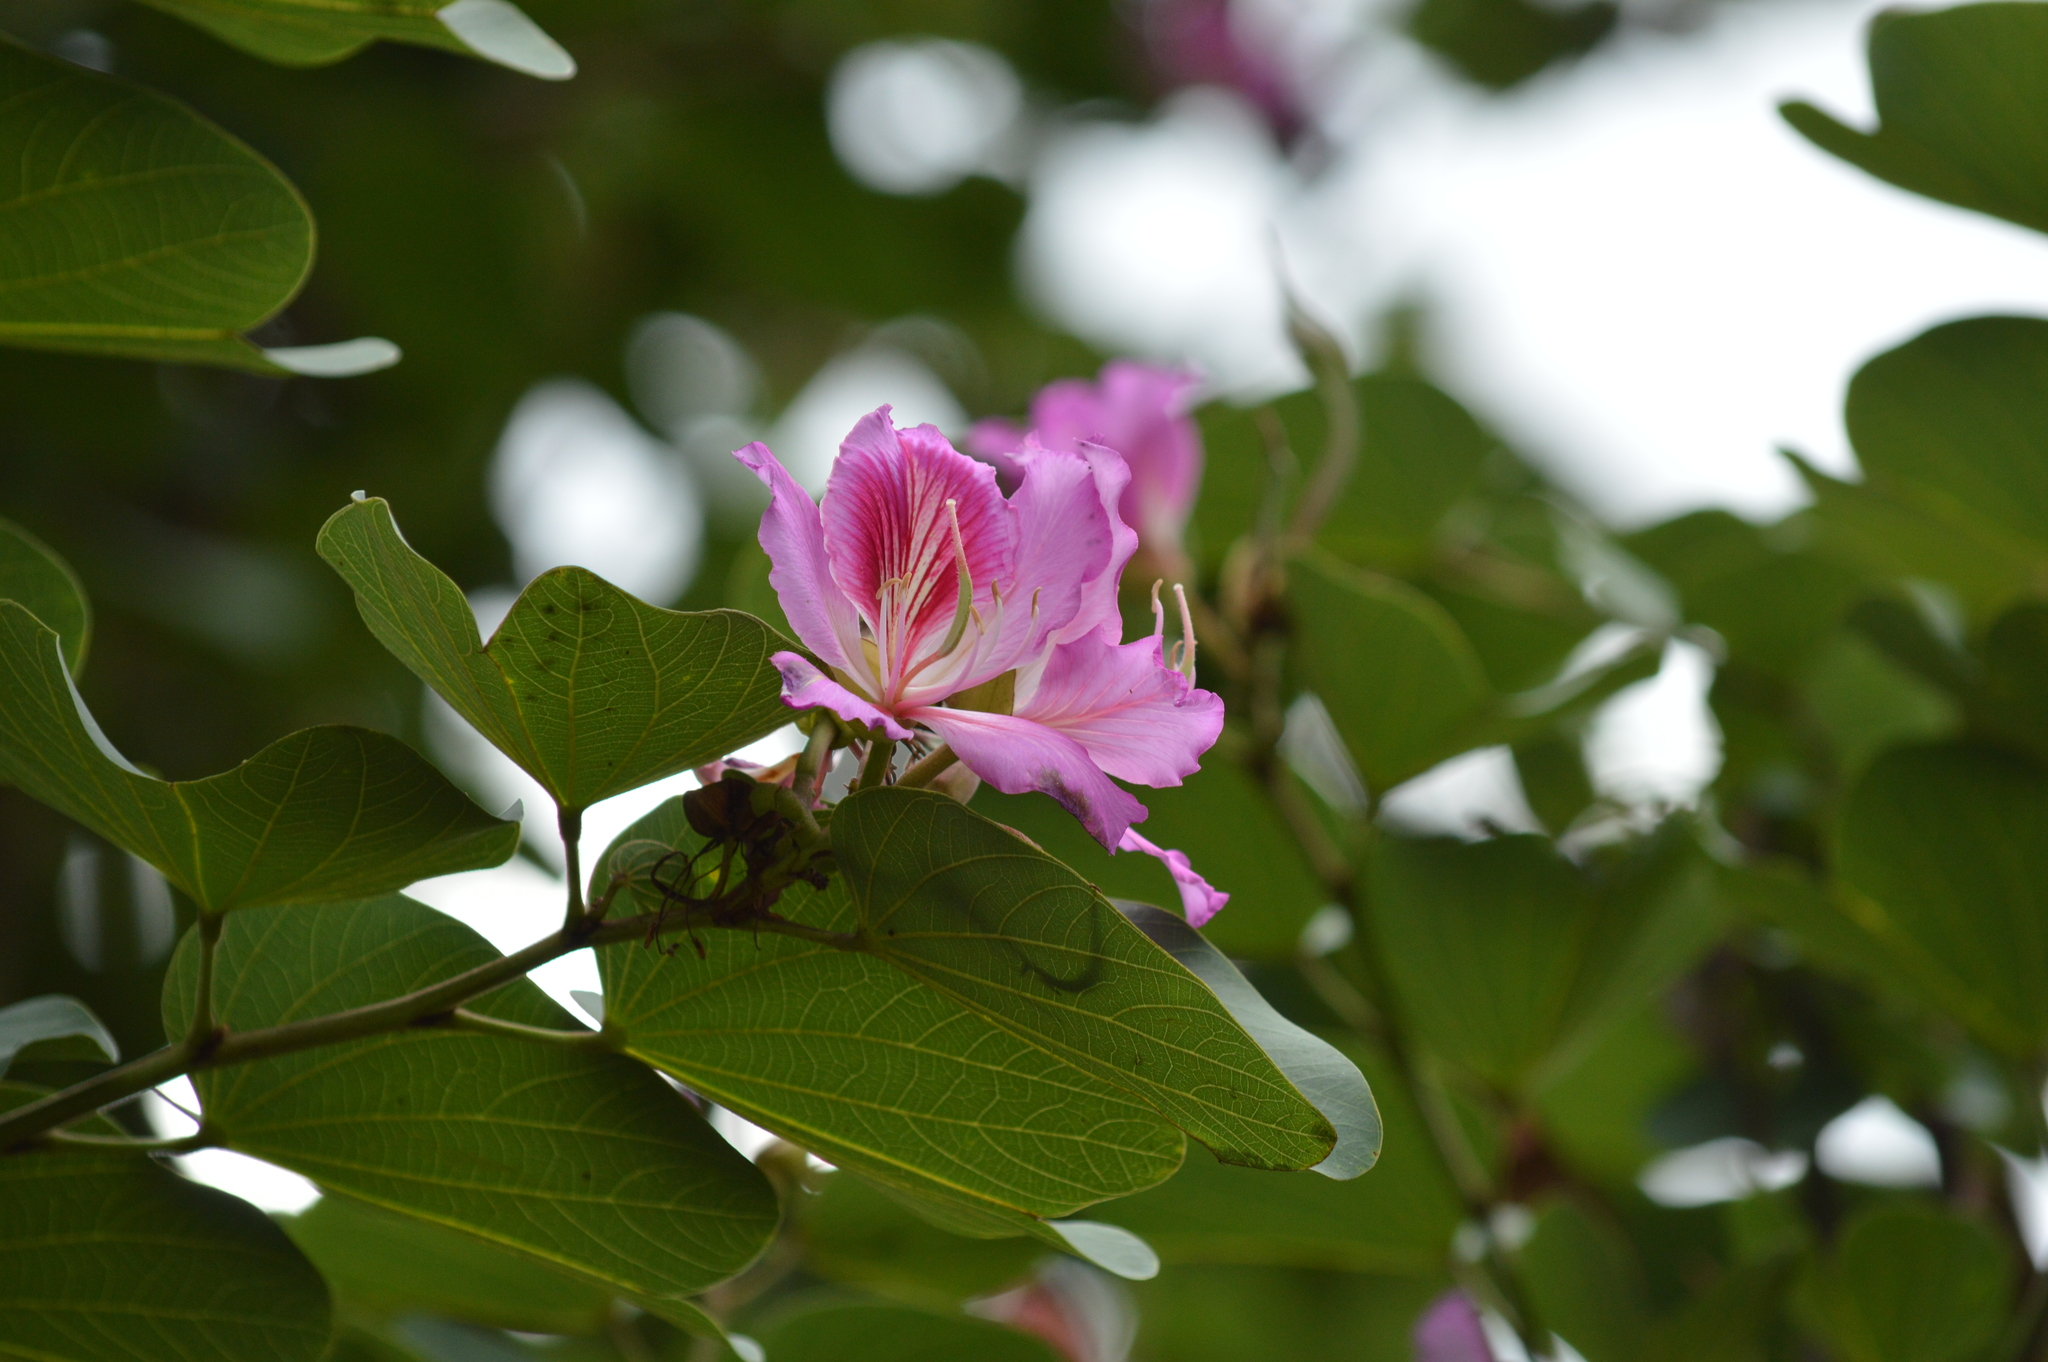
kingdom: Plantae
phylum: Tracheophyta
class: Magnoliopsida
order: Fabales
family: Fabaceae
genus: Bauhinia
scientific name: Bauhinia variegata
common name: Mountain ebony
